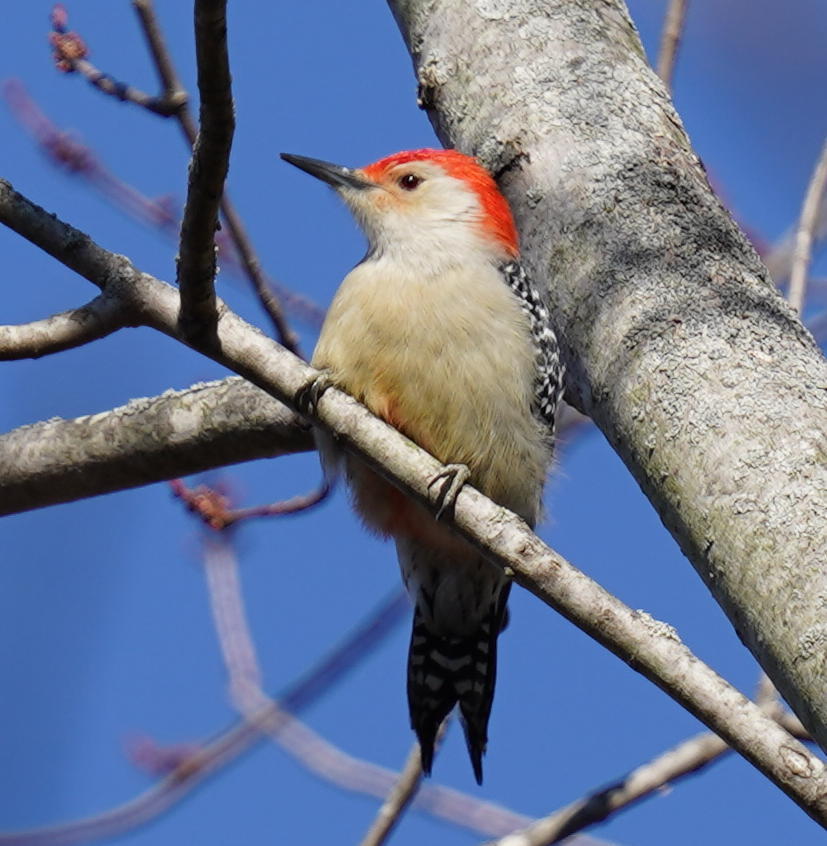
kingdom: Animalia
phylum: Chordata
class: Aves
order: Piciformes
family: Picidae
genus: Melanerpes
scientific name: Melanerpes carolinus
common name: Red-bellied woodpecker
